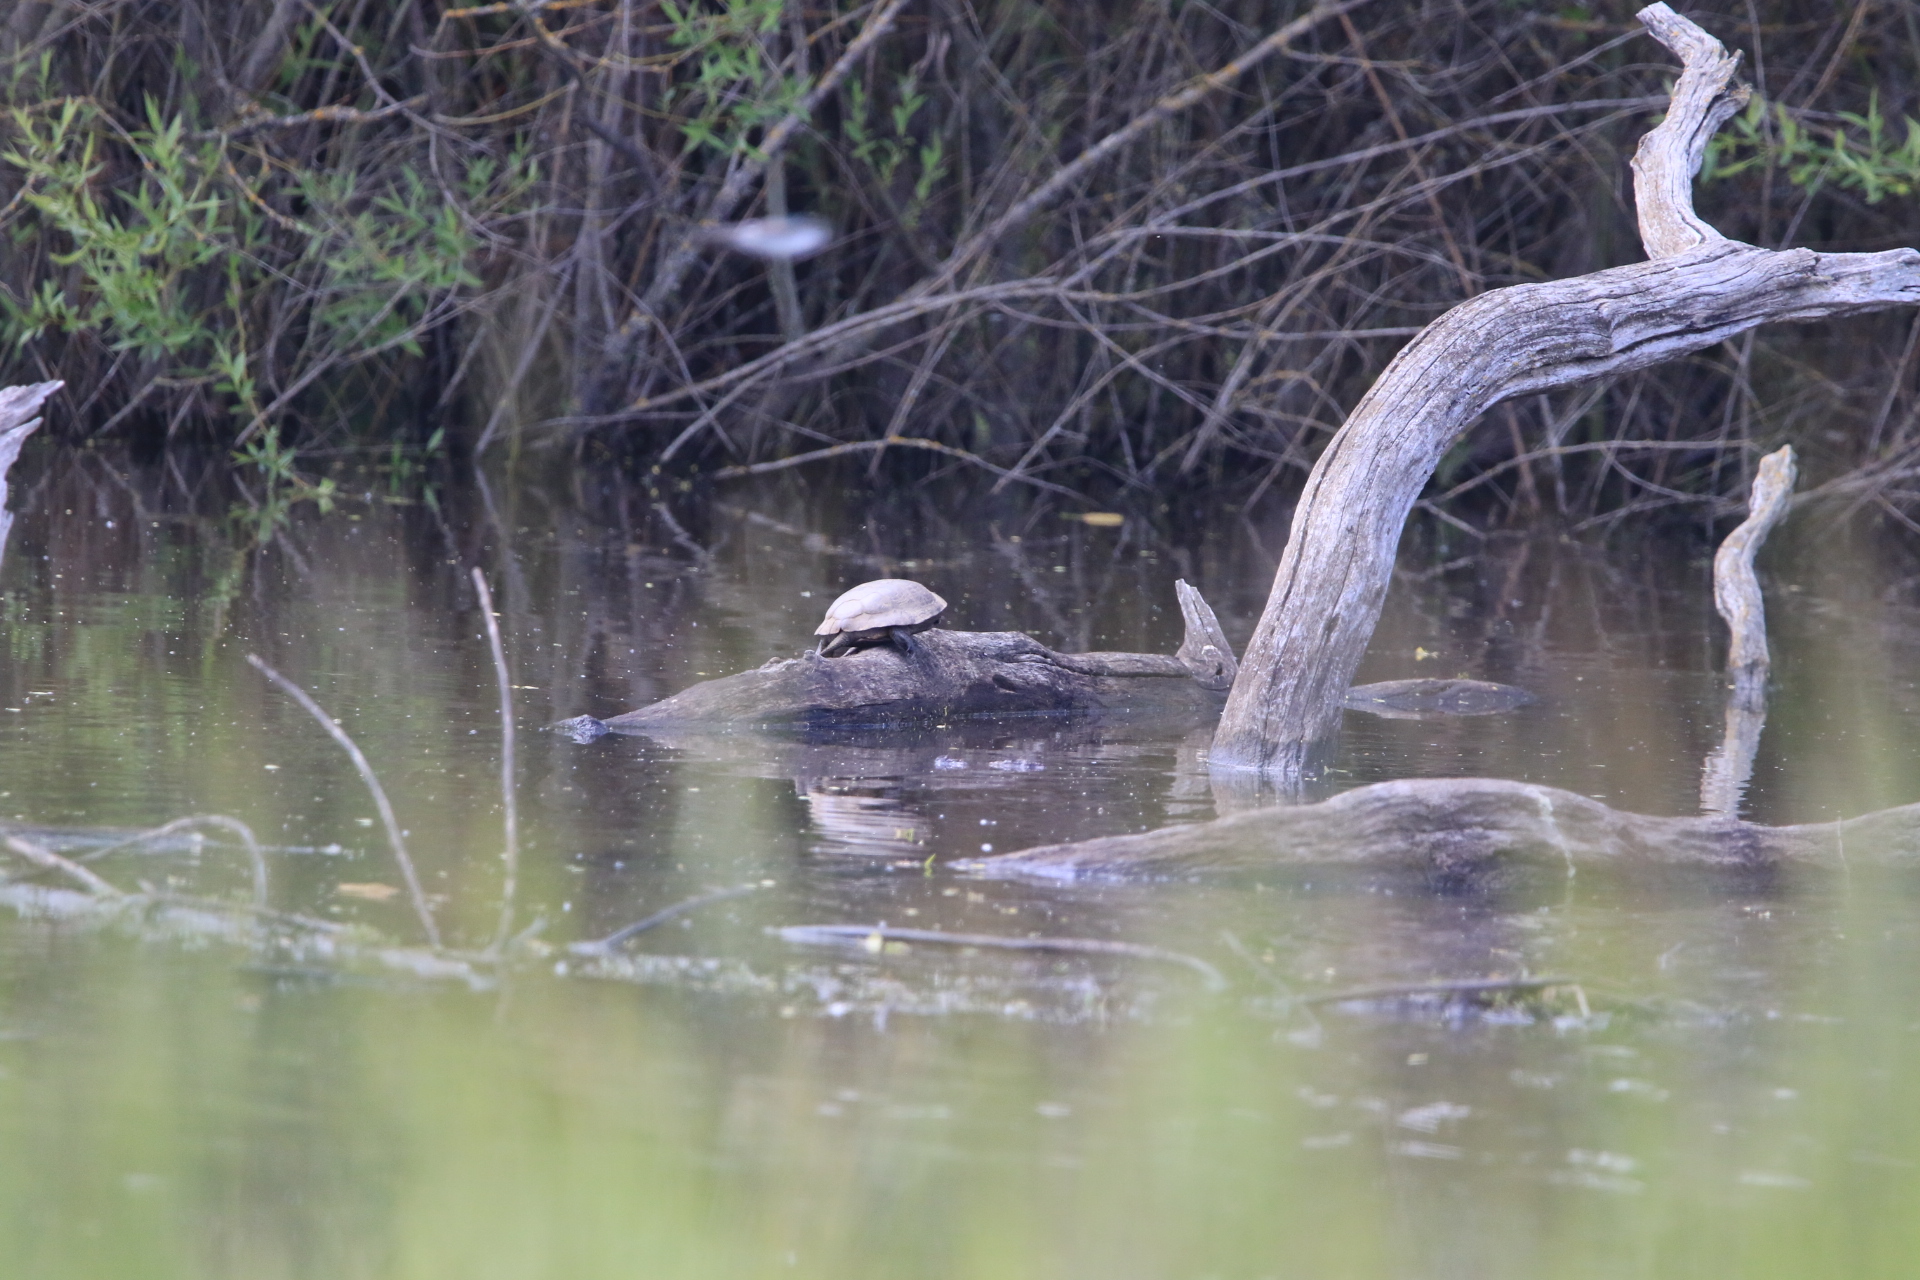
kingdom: Animalia
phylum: Chordata
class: Testudines
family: Emydidae
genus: Actinemys
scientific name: Actinemys marmorata
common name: Western pond turtle
